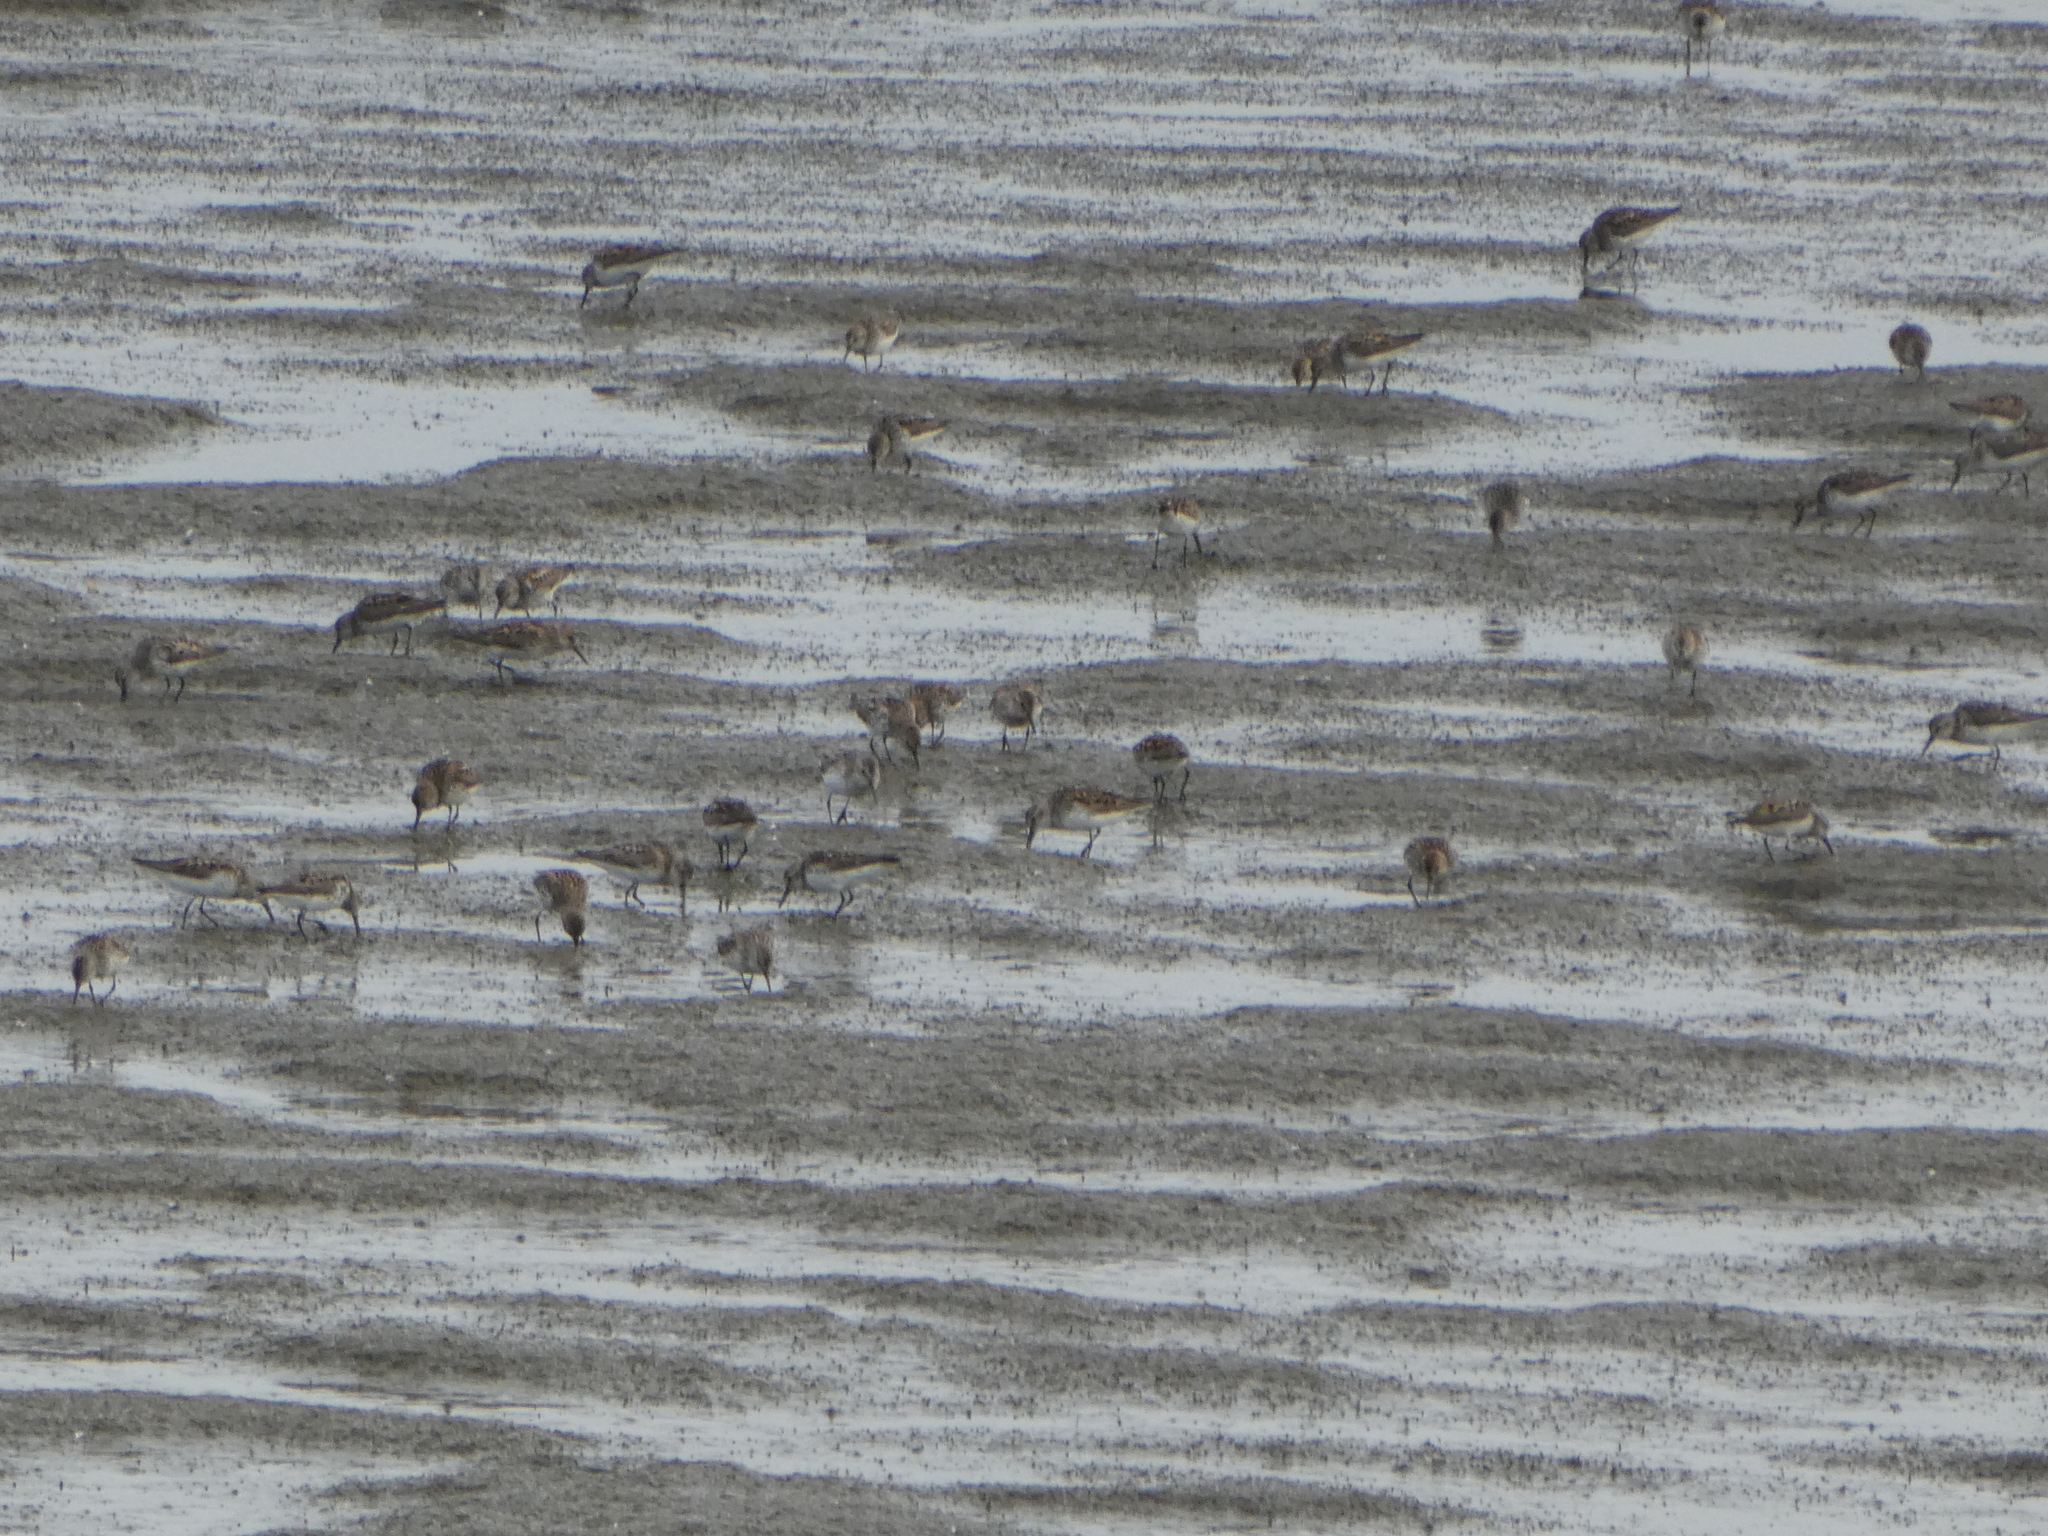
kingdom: Animalia
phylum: Chordata
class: Aves
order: Charadriiformes
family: Scolopacidae
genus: Calidris
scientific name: Calidris mauri
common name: Western sandpiper
